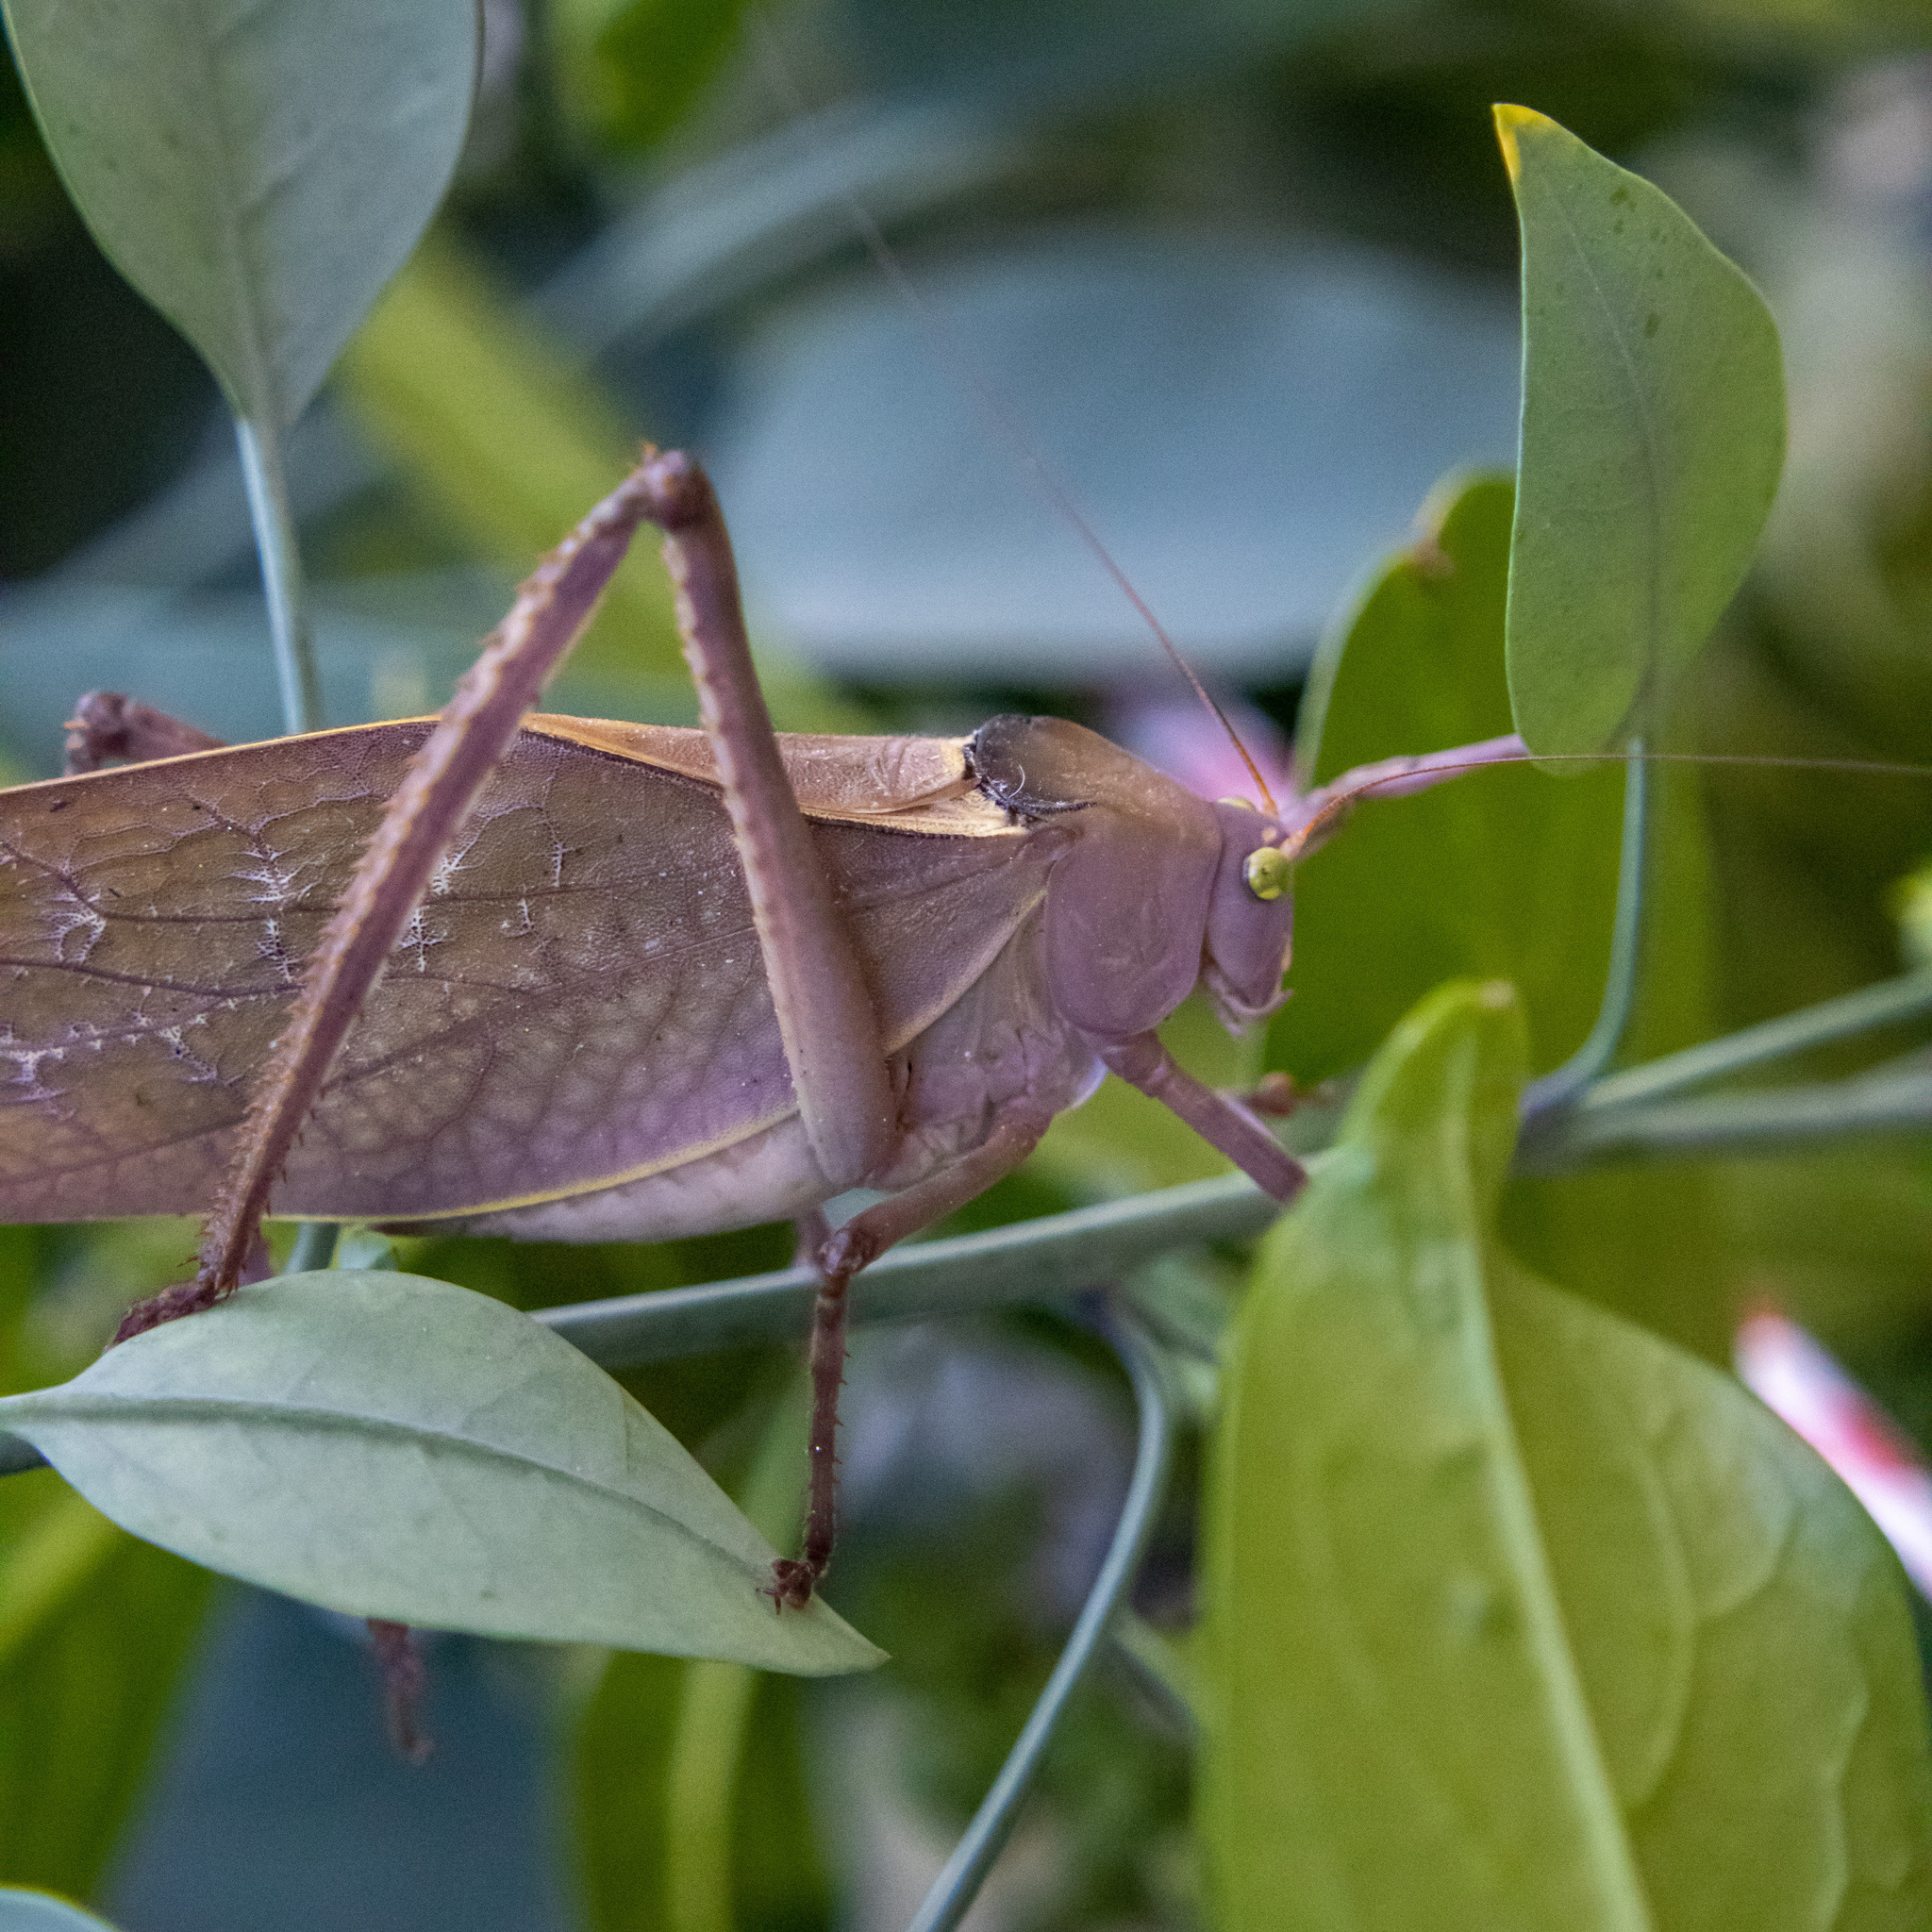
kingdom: Animalia
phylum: Arthropoda
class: Insecta
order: Orthoptera
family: Tettigoniidae
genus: Stilpnochlora
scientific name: Stilpnochlora azteca
